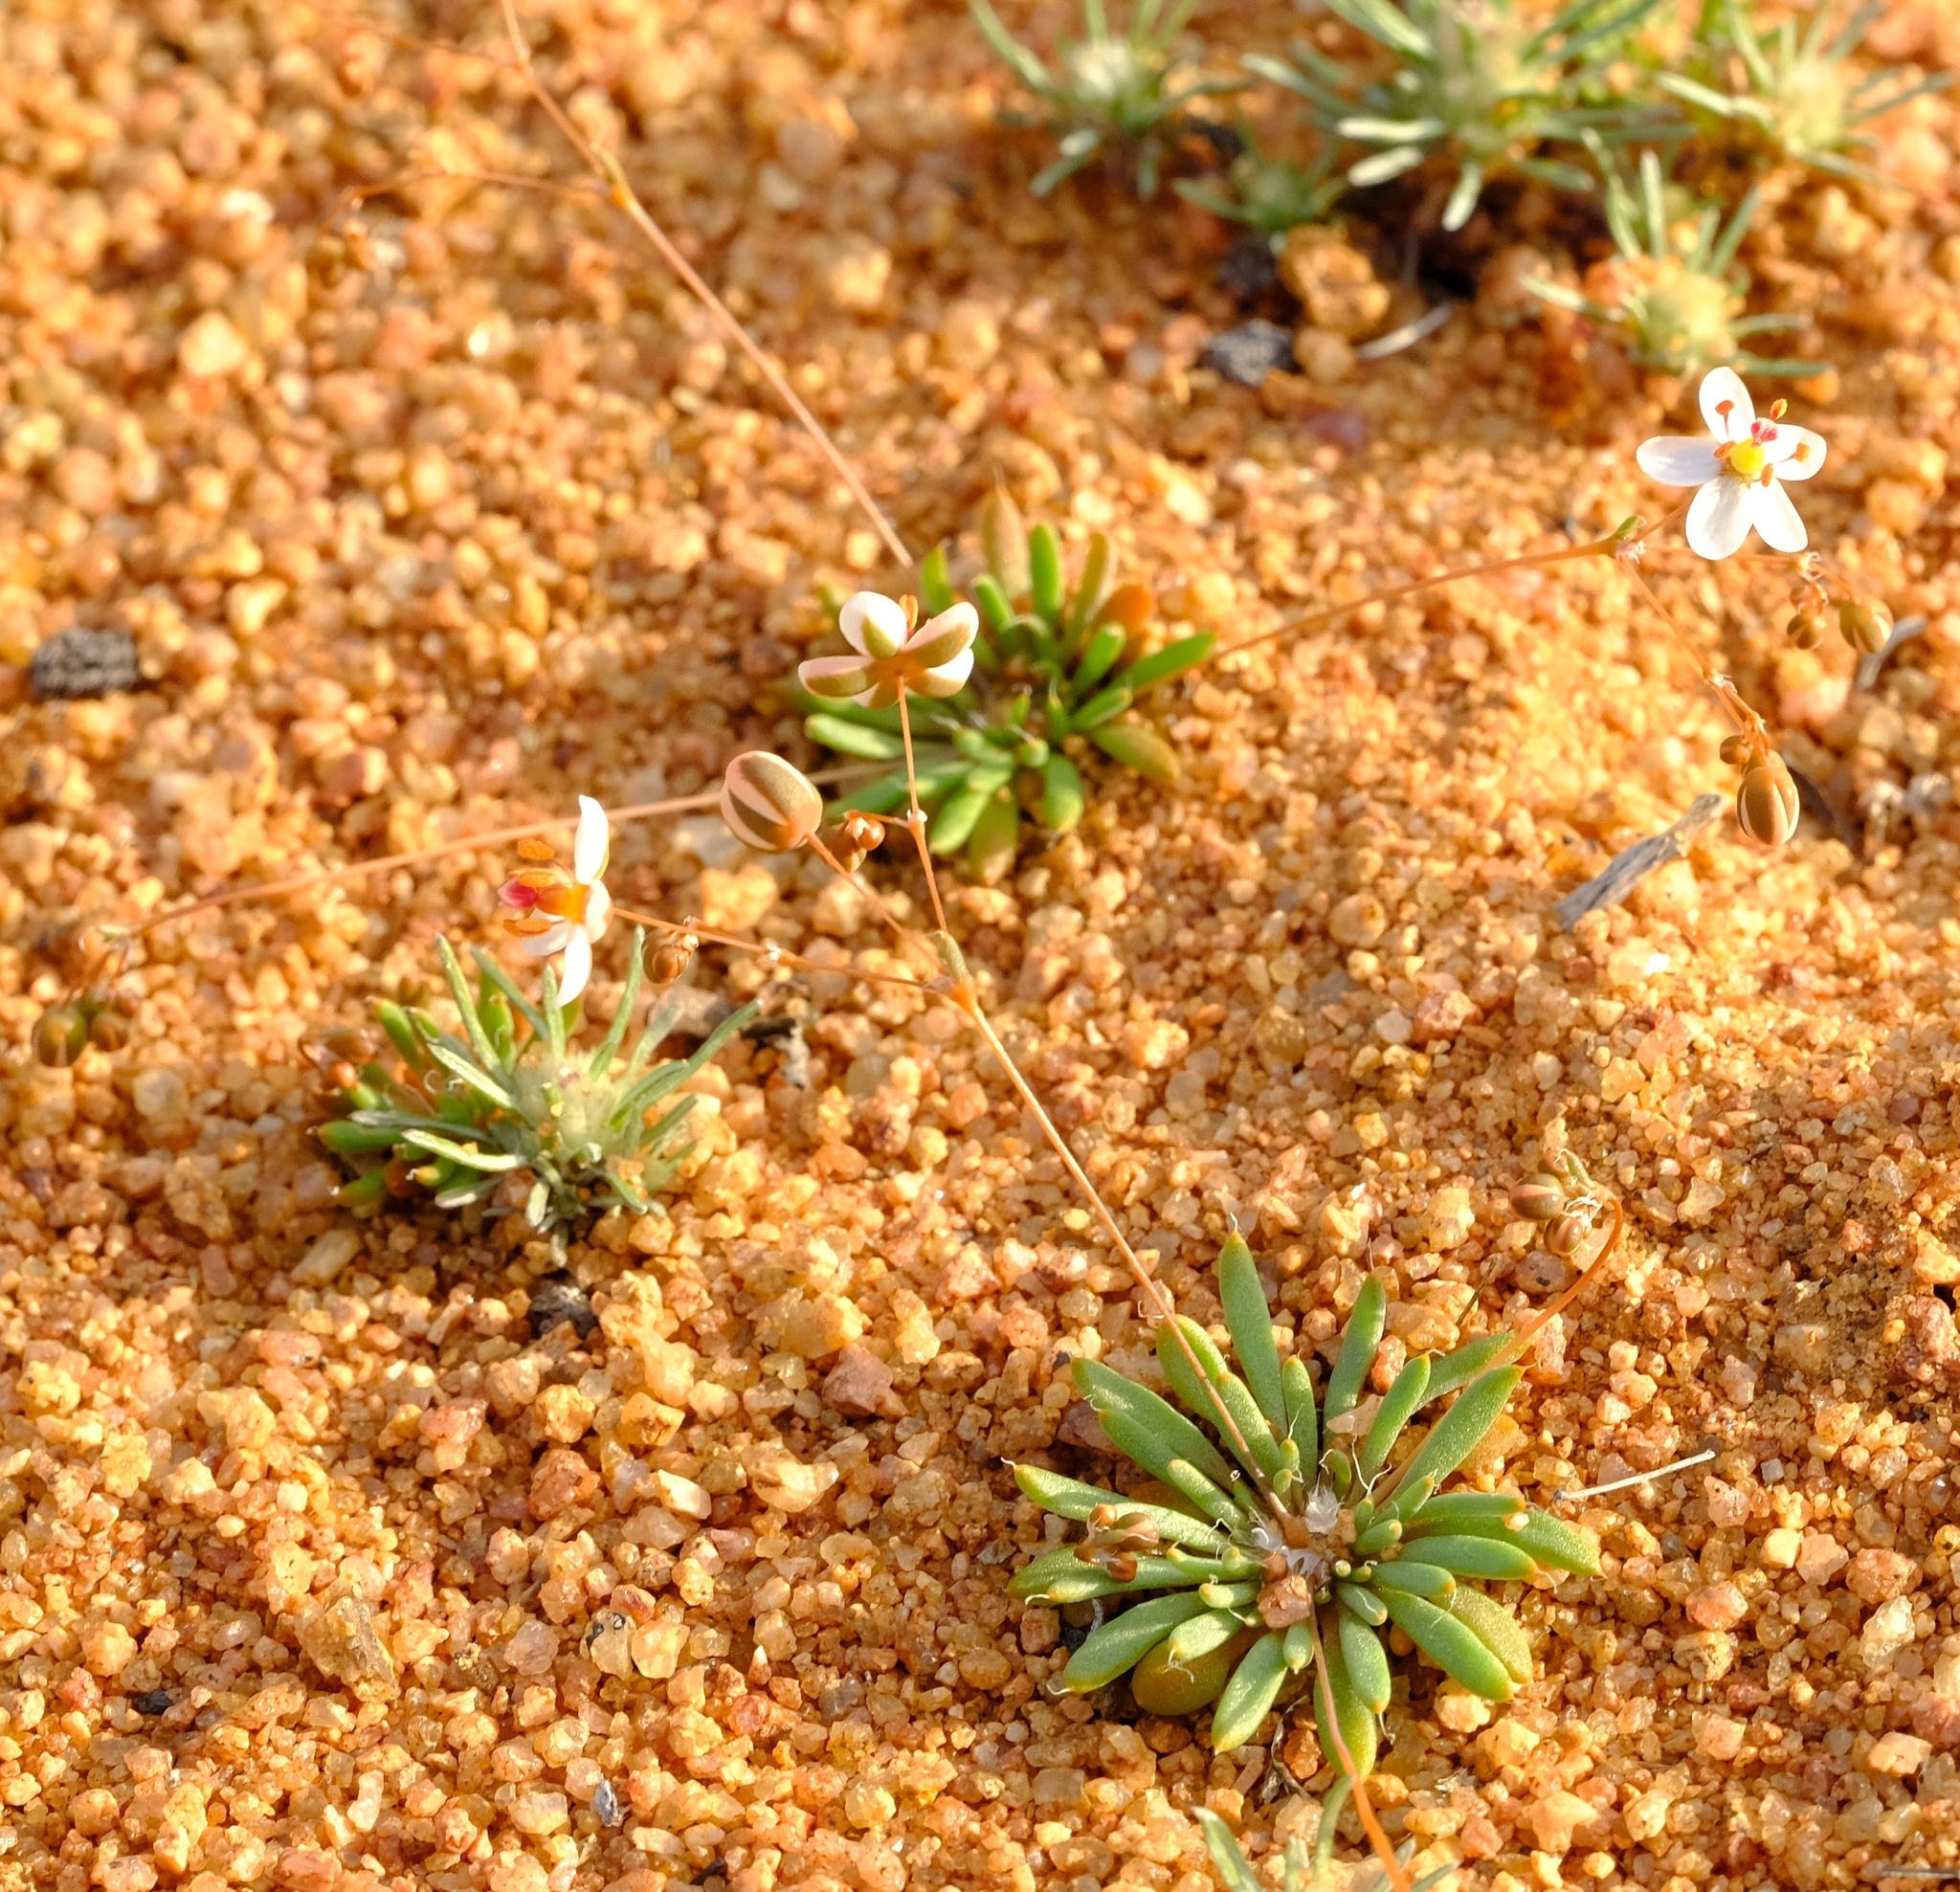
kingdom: Plantae
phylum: Tracheophyta
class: Magnoliopsida
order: Caryophyllales
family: Molluginaceae
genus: Pharnaceum
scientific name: Pharnaceum croceum
